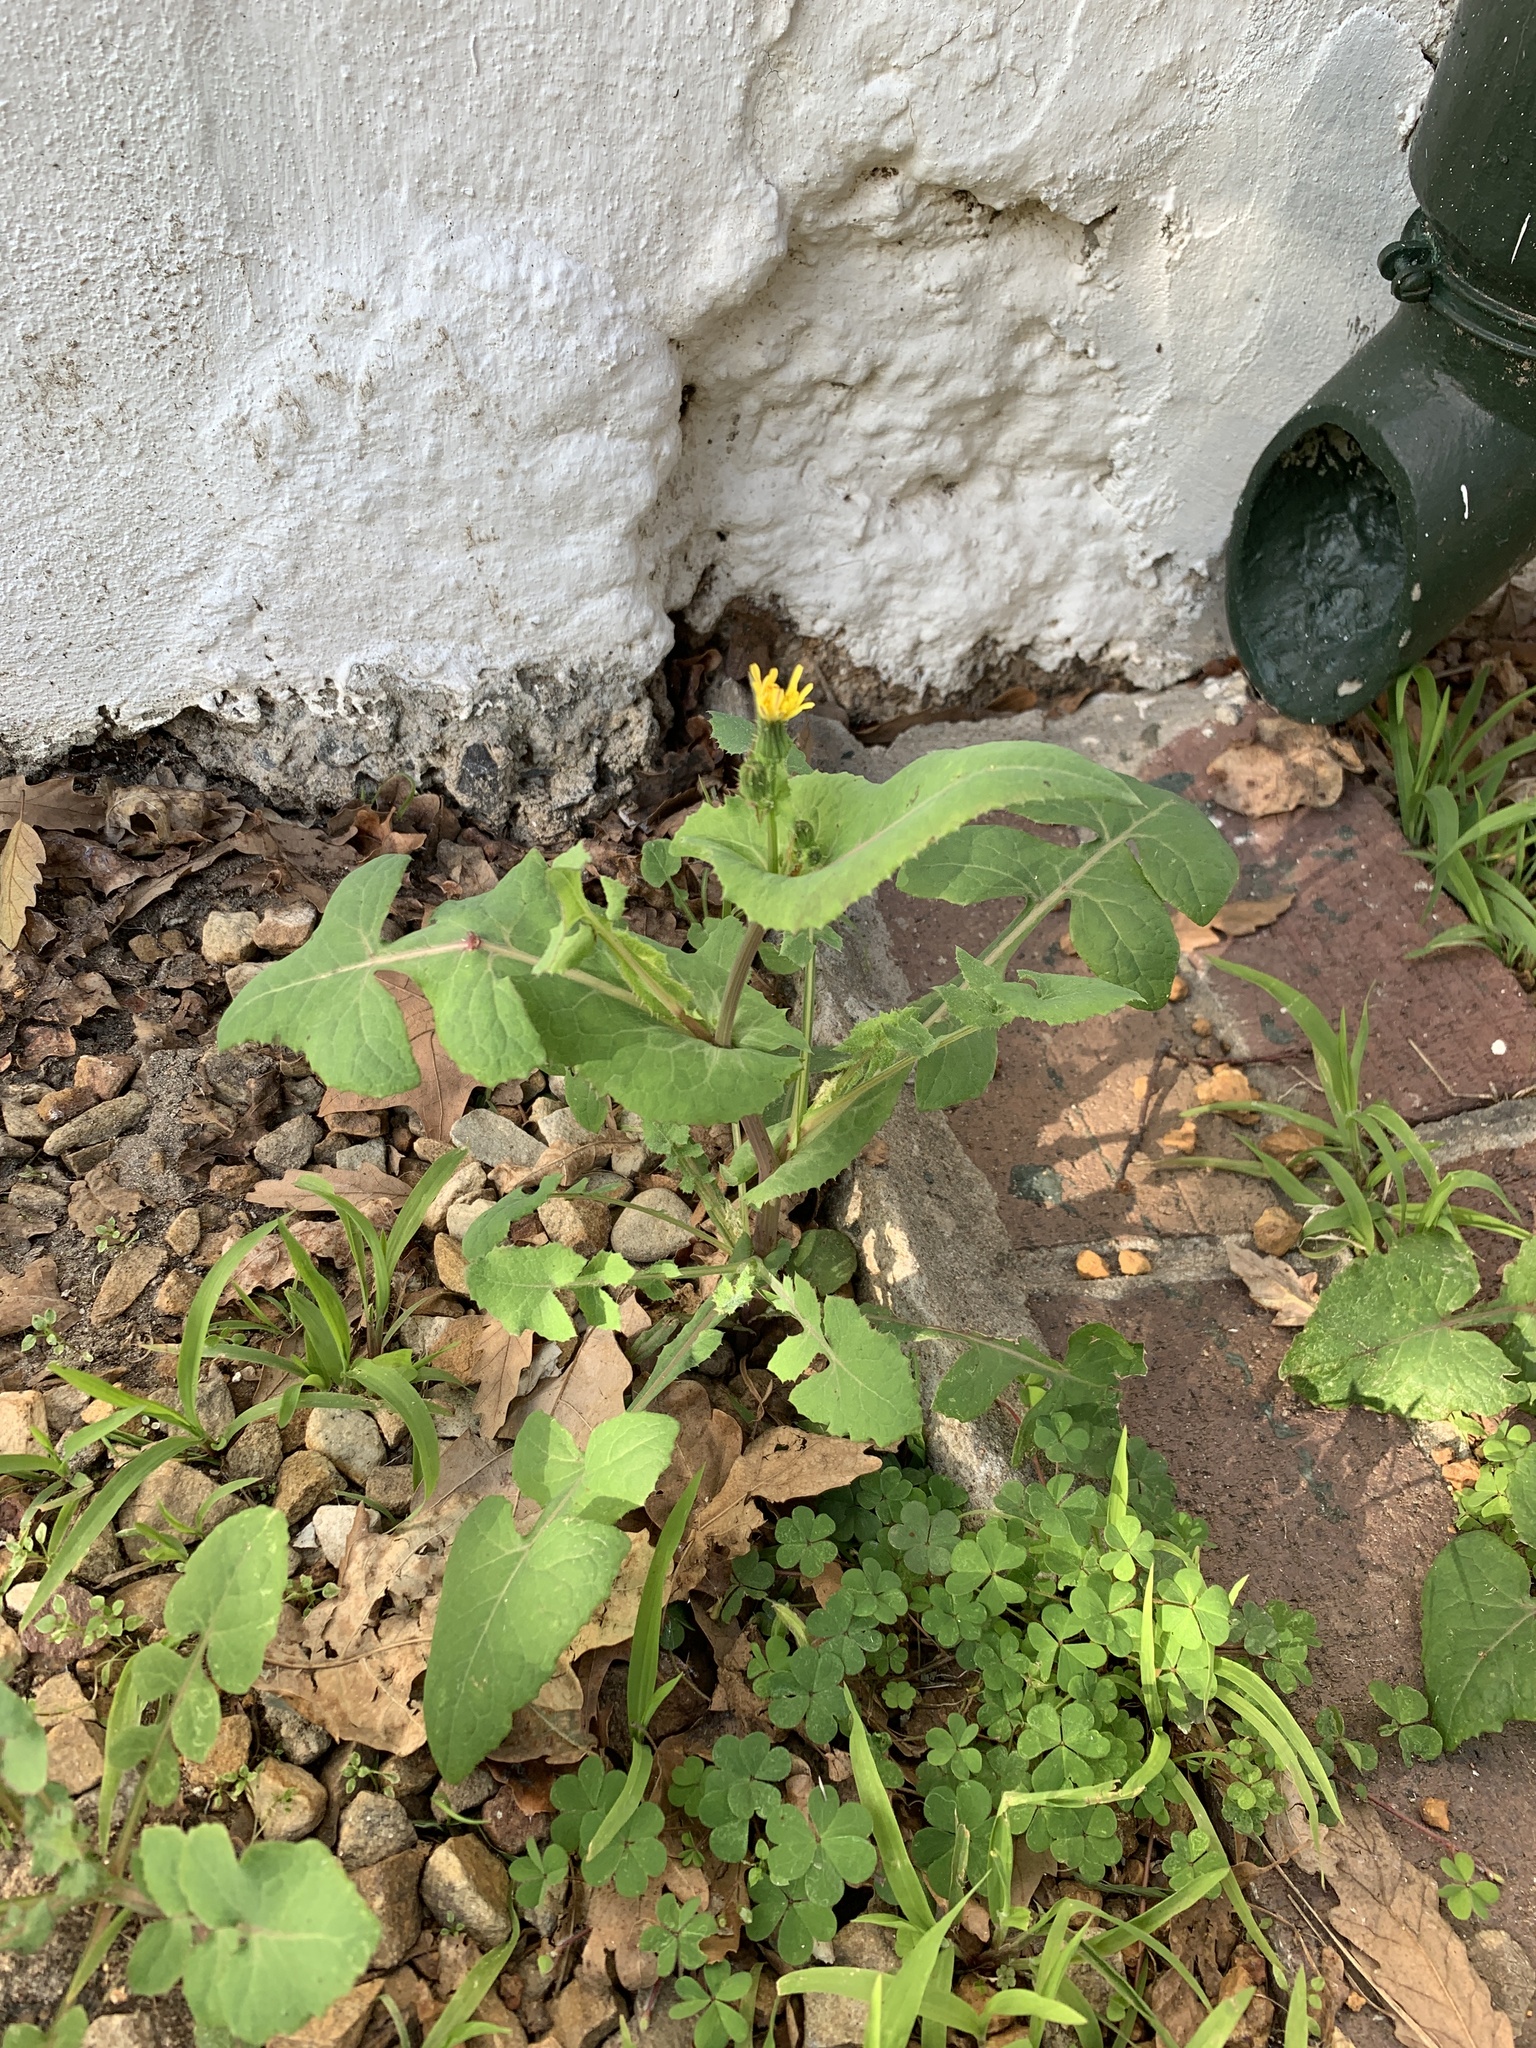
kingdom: Plantae
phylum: Tracheophyta
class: Magnoliopsida
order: Asterales
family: Asteraceae
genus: Sonchus
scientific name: Sonchus oleraceus
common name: Common sowthistle
